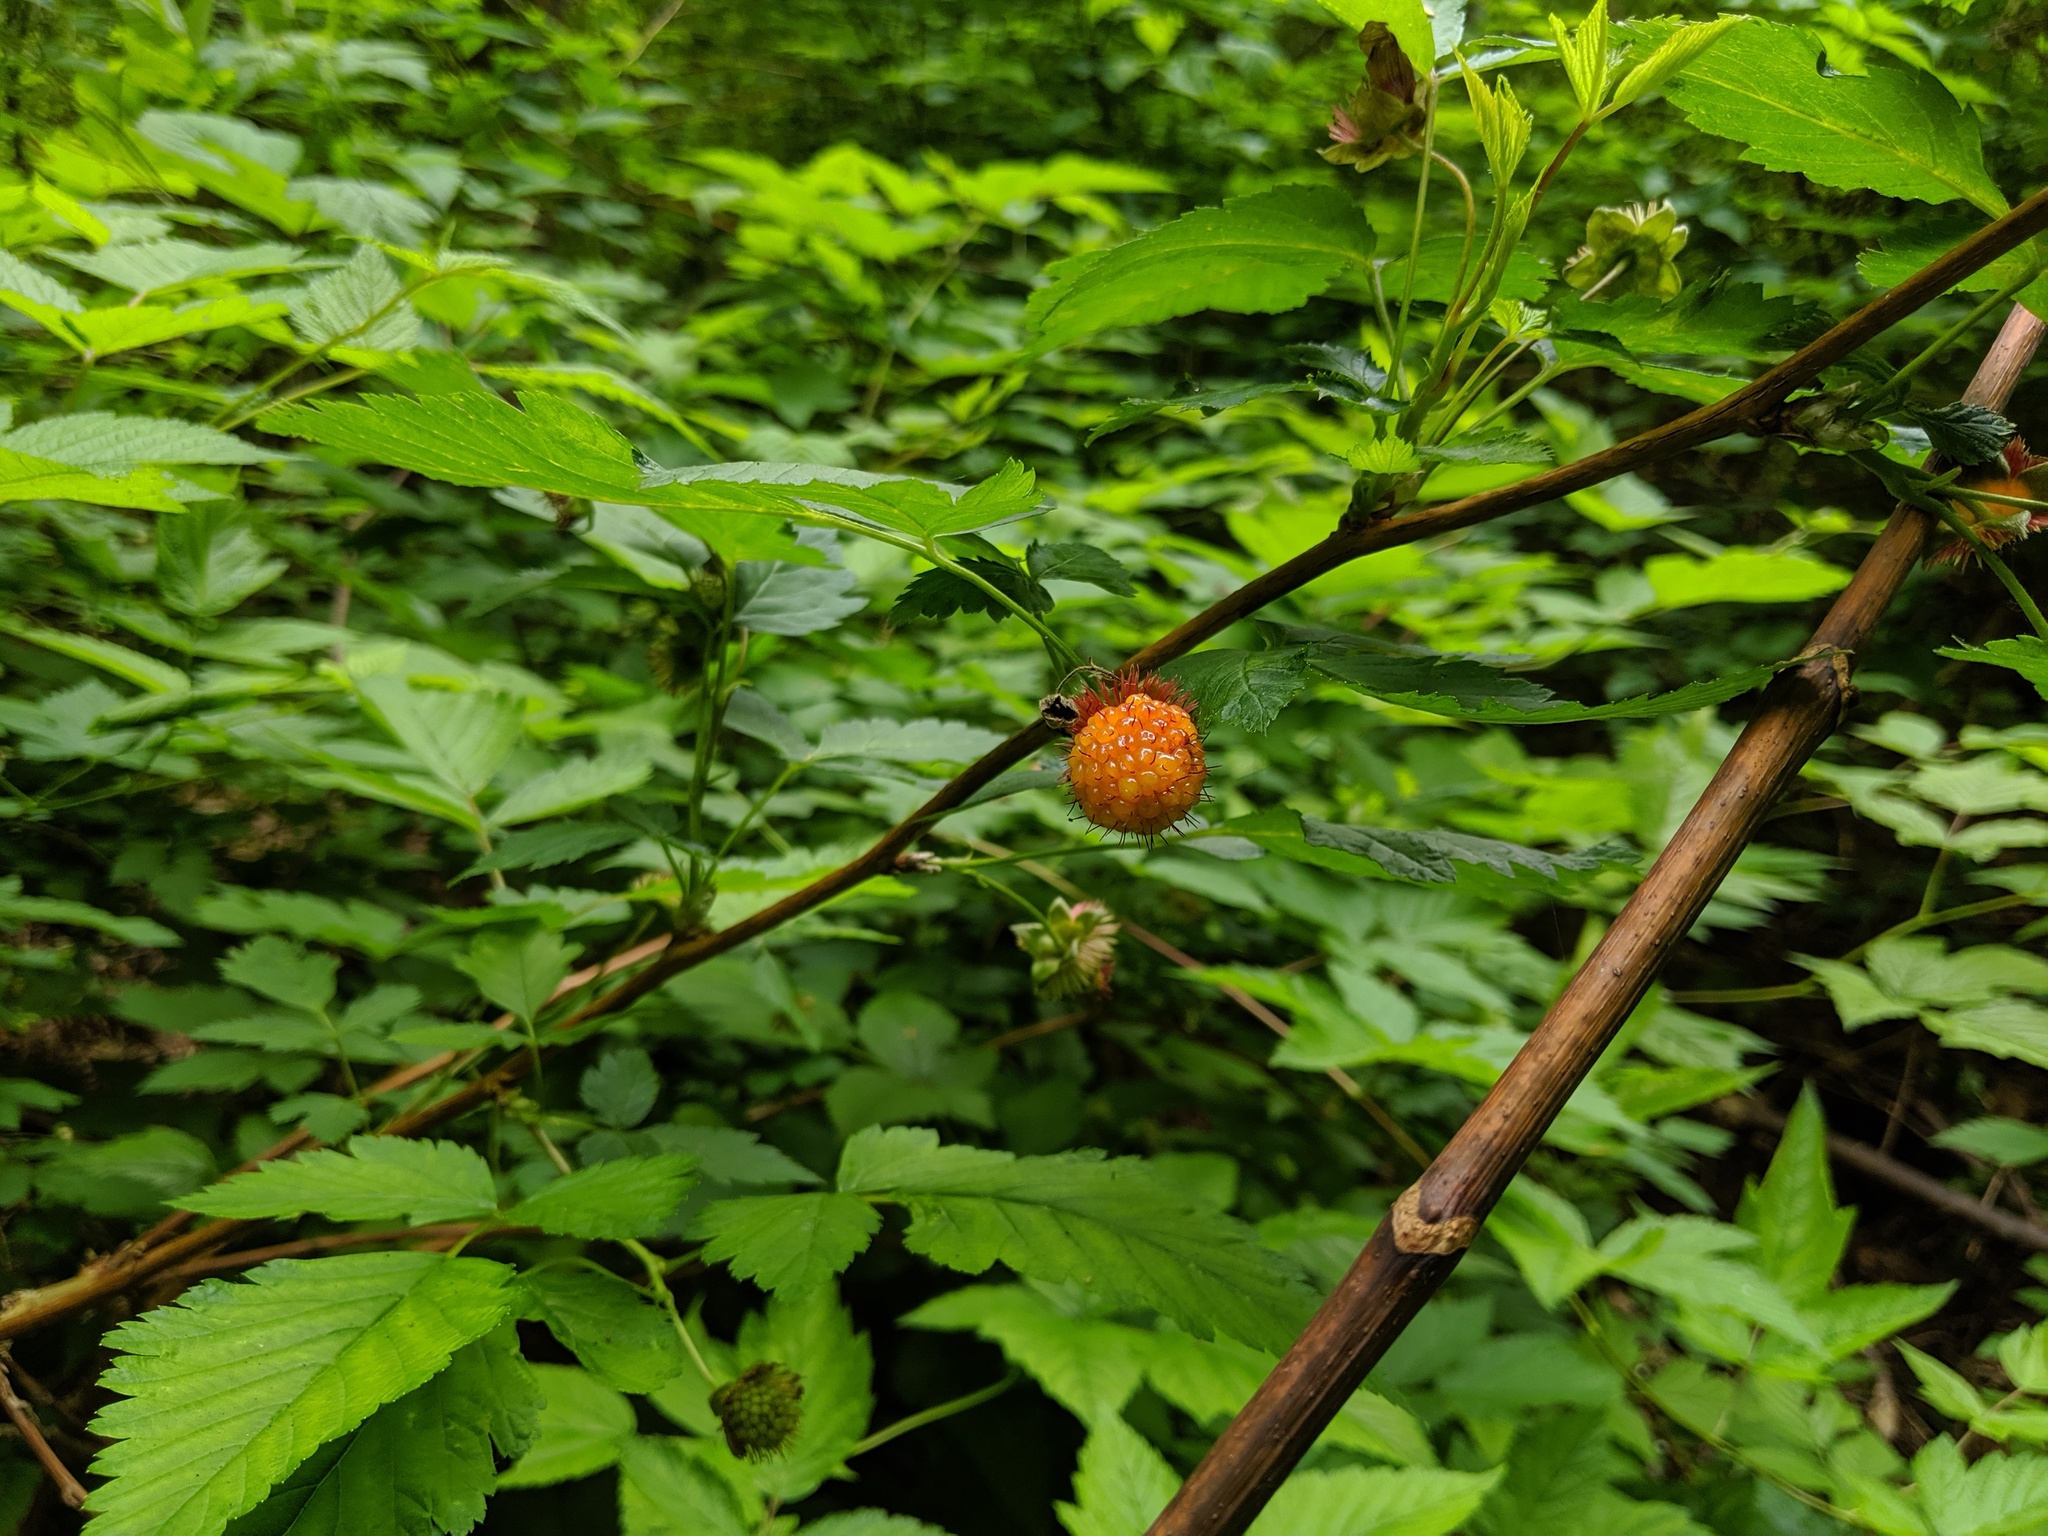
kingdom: Plantae
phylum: Tracheophyta
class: Magnoliopsida
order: Rosales
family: Rosaceae
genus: Rubus
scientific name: Rubus spectabilis
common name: Salmonberry
